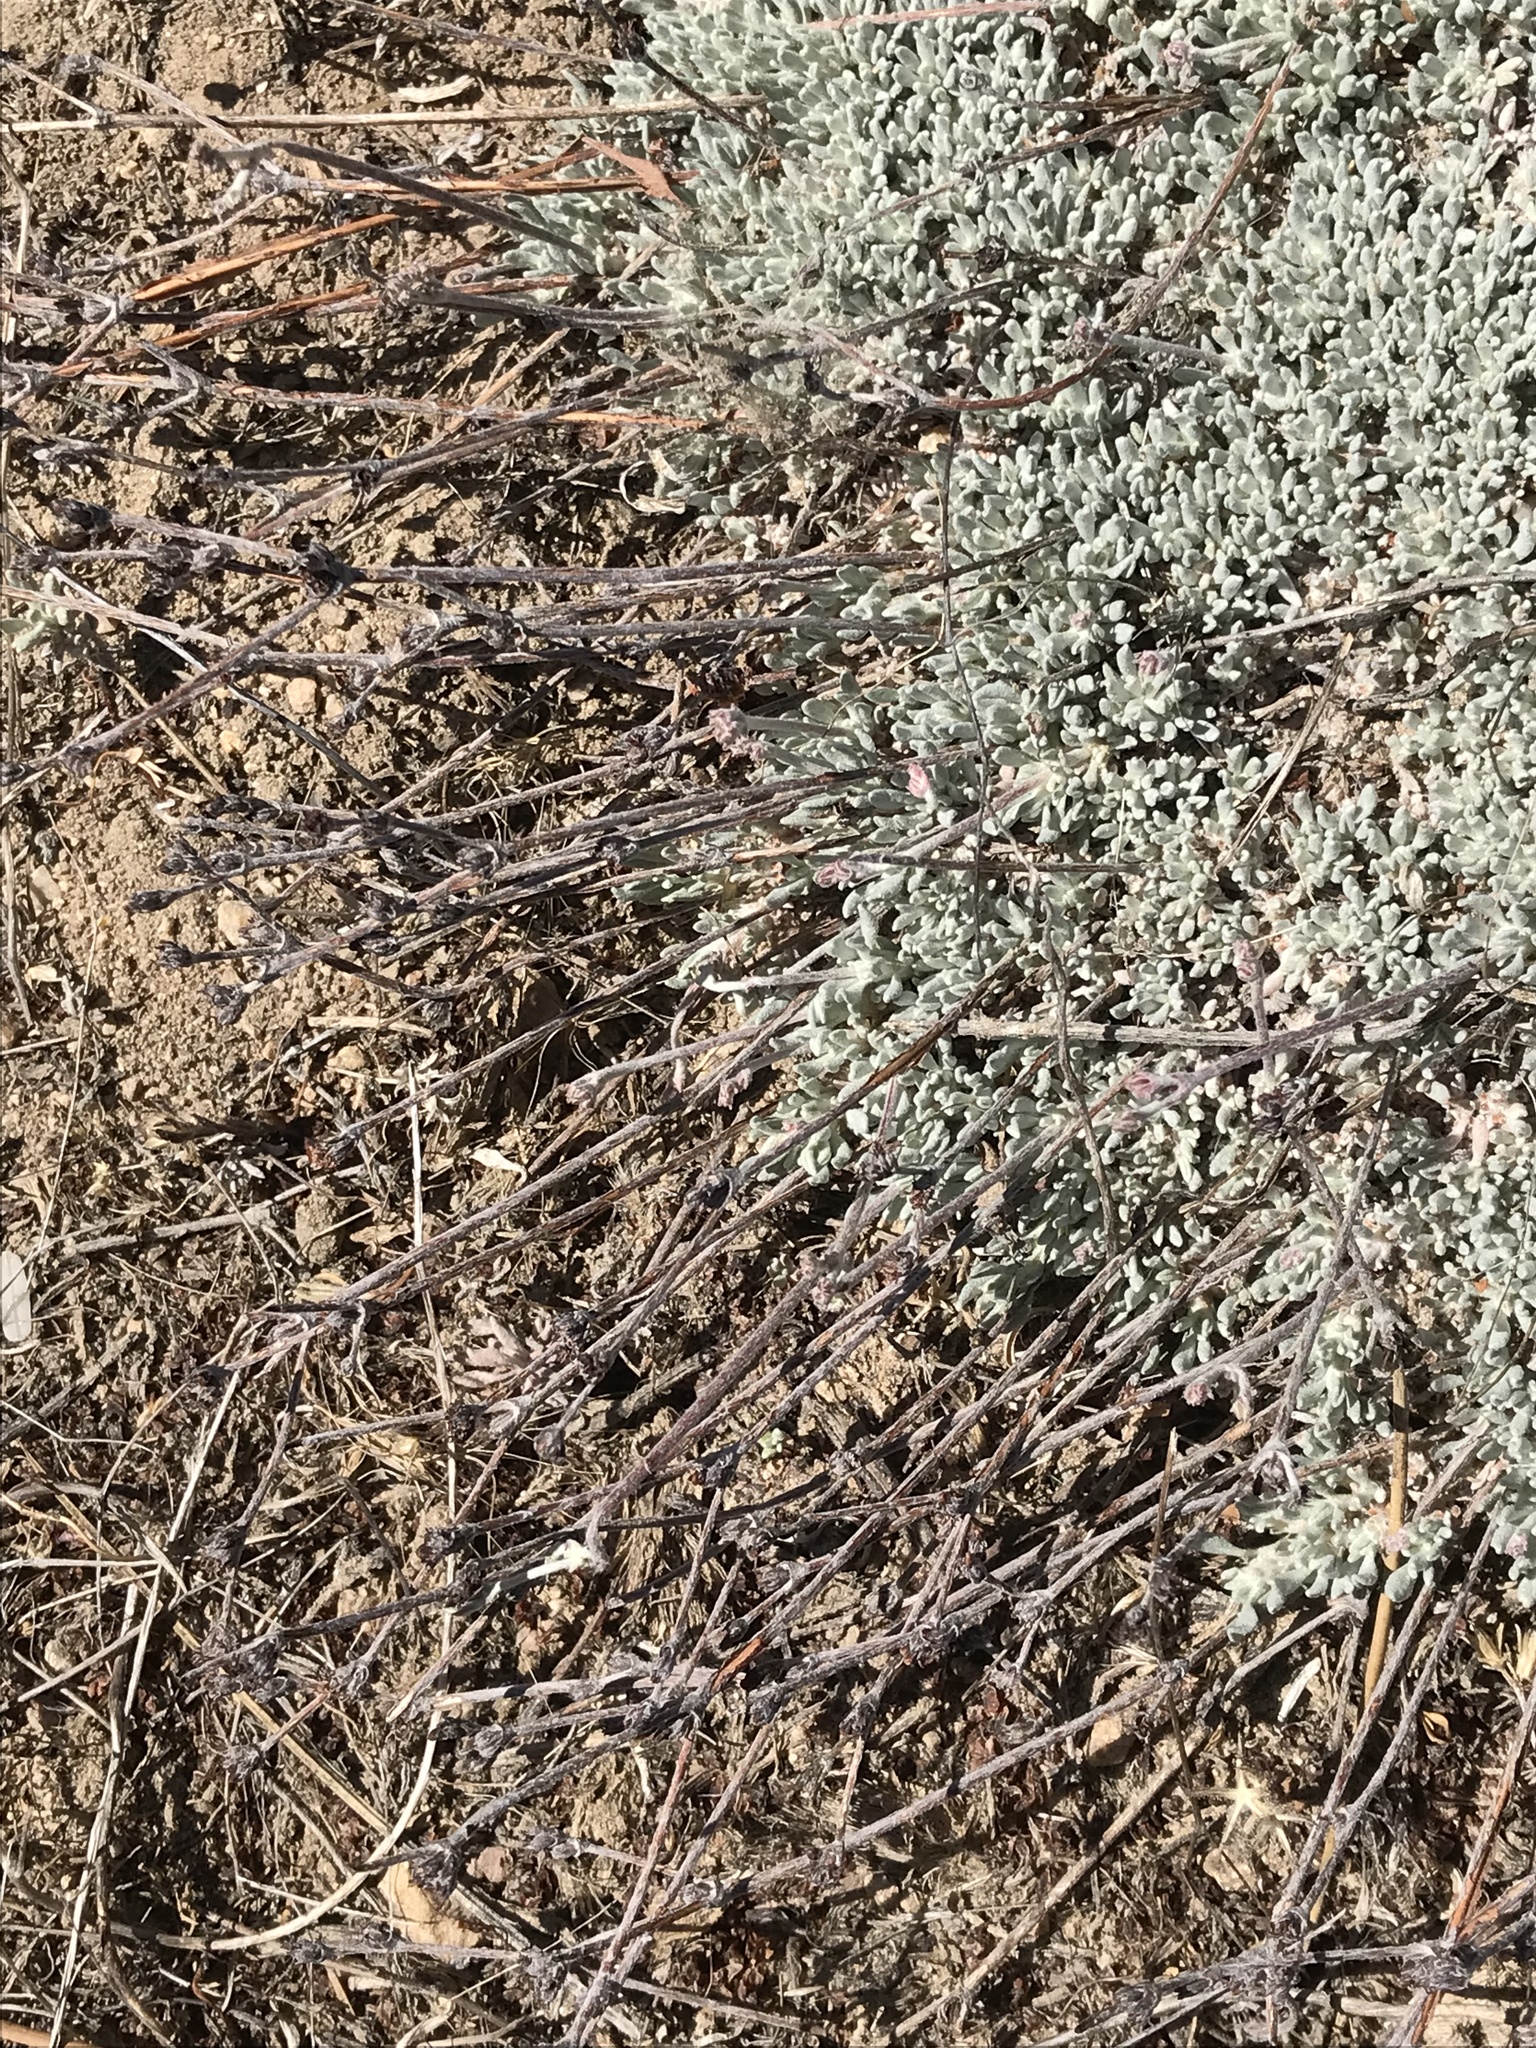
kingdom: Plantae
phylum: Tracheophyta
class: Magnoliopsida
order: Caryophyllales
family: Polygonaceae
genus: Eriogonum
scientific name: Eriogonum wrightii
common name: Bastard-sage
